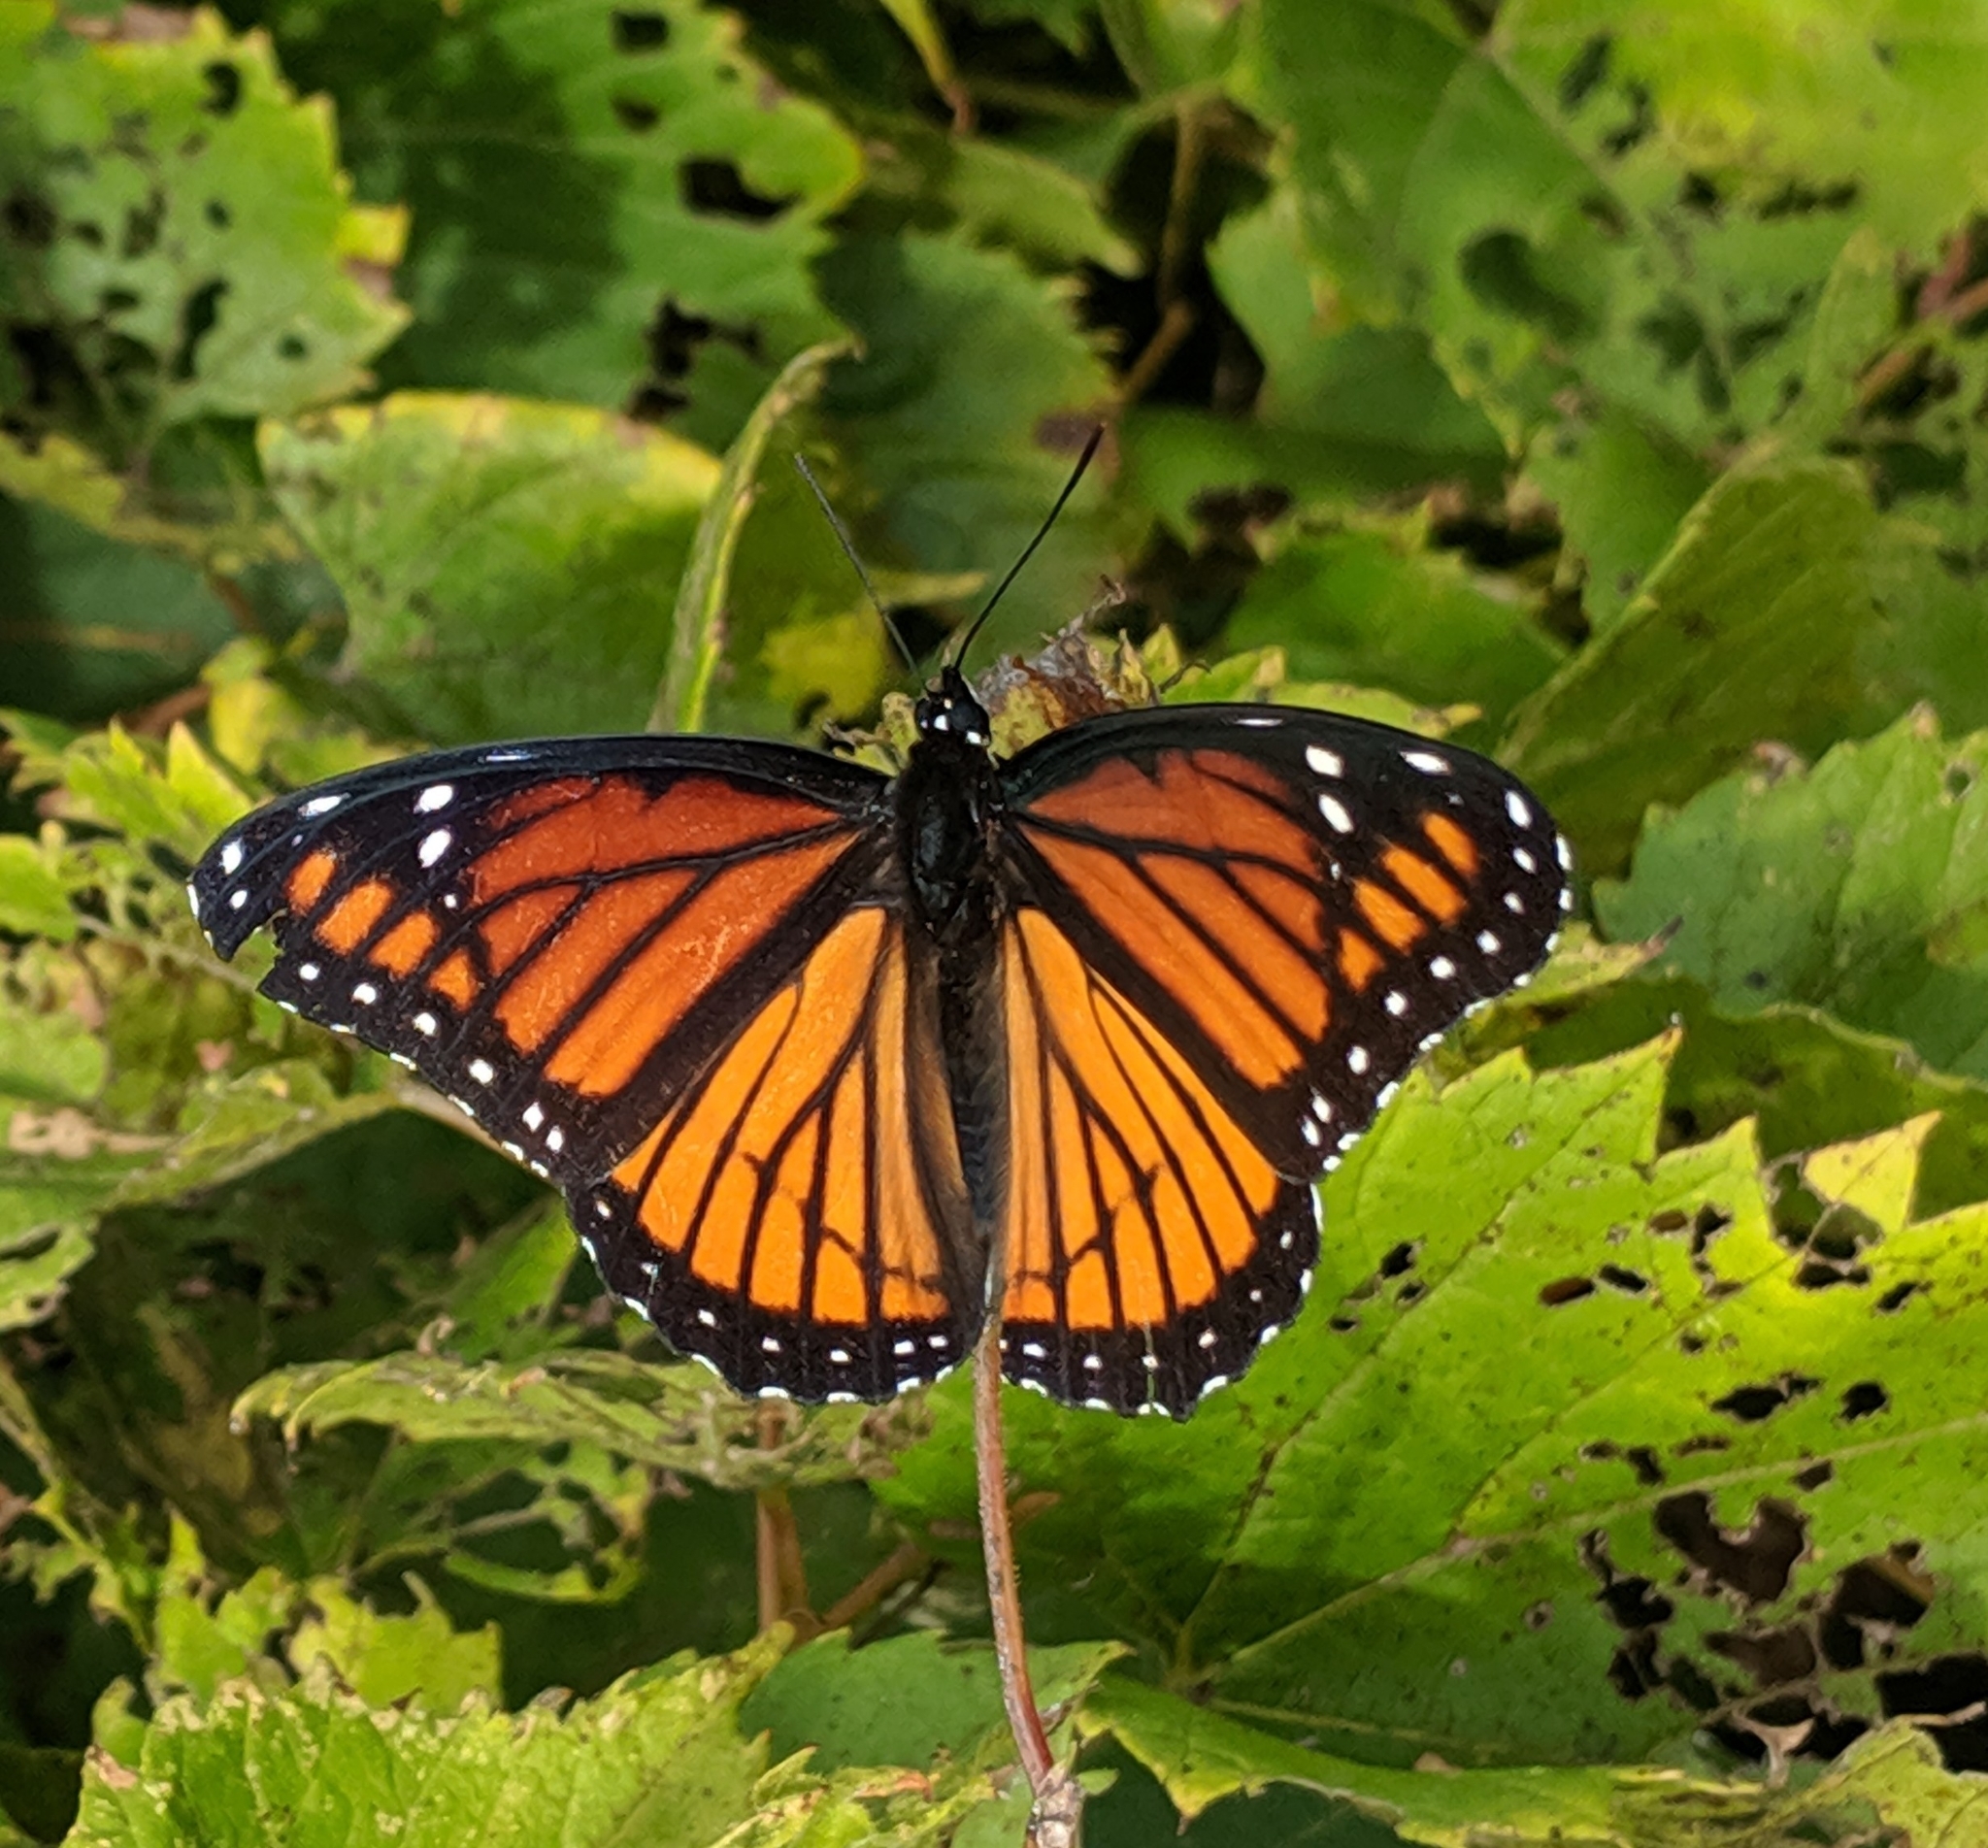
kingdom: Animalia
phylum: Arthropoda
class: Insecta
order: Lepidoptera
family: Nymphalidae
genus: Limenitis
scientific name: Limenitis archippus
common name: Viceroy
